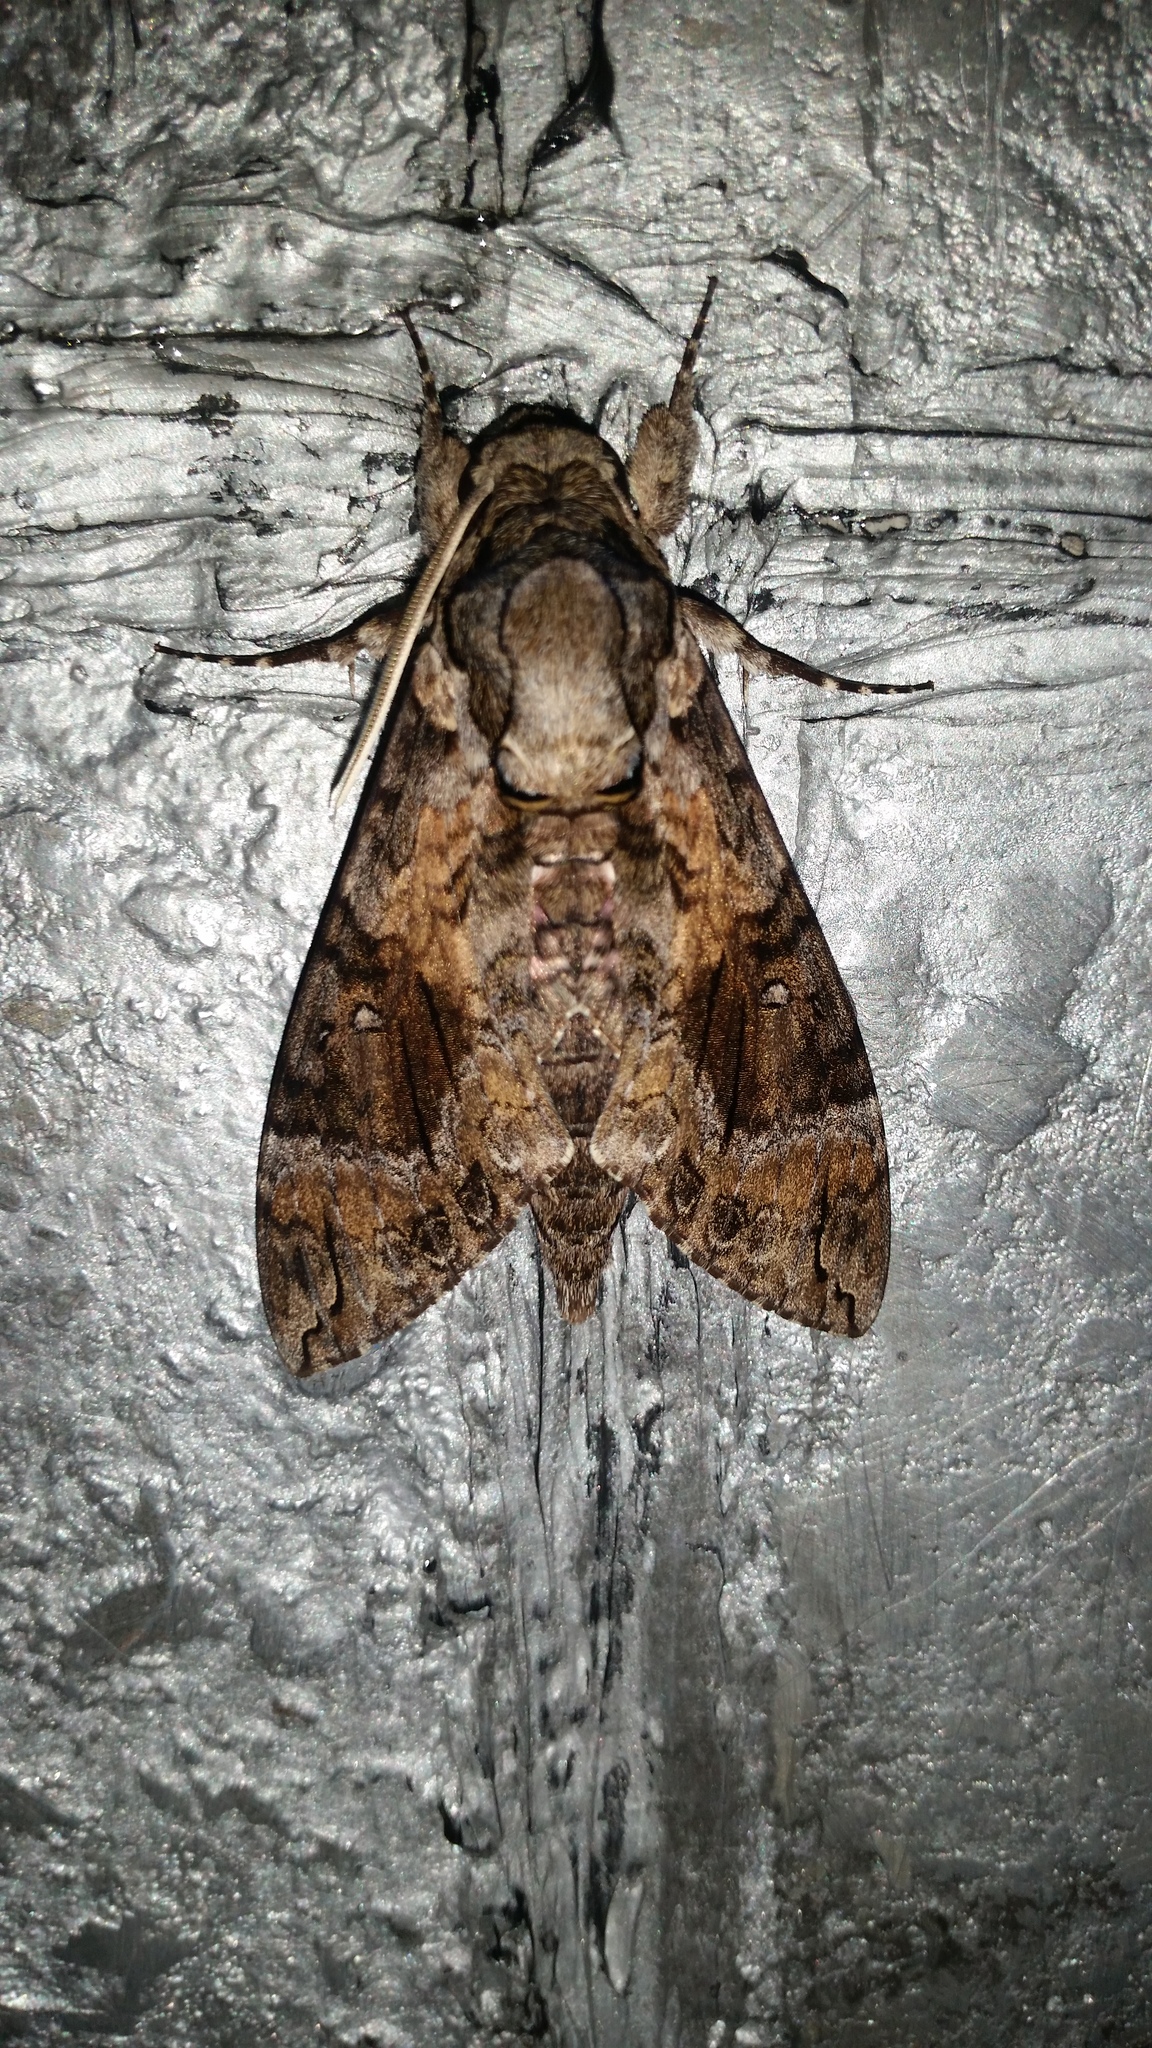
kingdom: Animalia
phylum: Arthropoda
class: Insecta
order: Lepidoptera
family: Sphingidae
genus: Agrius
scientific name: Agrius cingulata
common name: Pink-spotted hawkmoth
